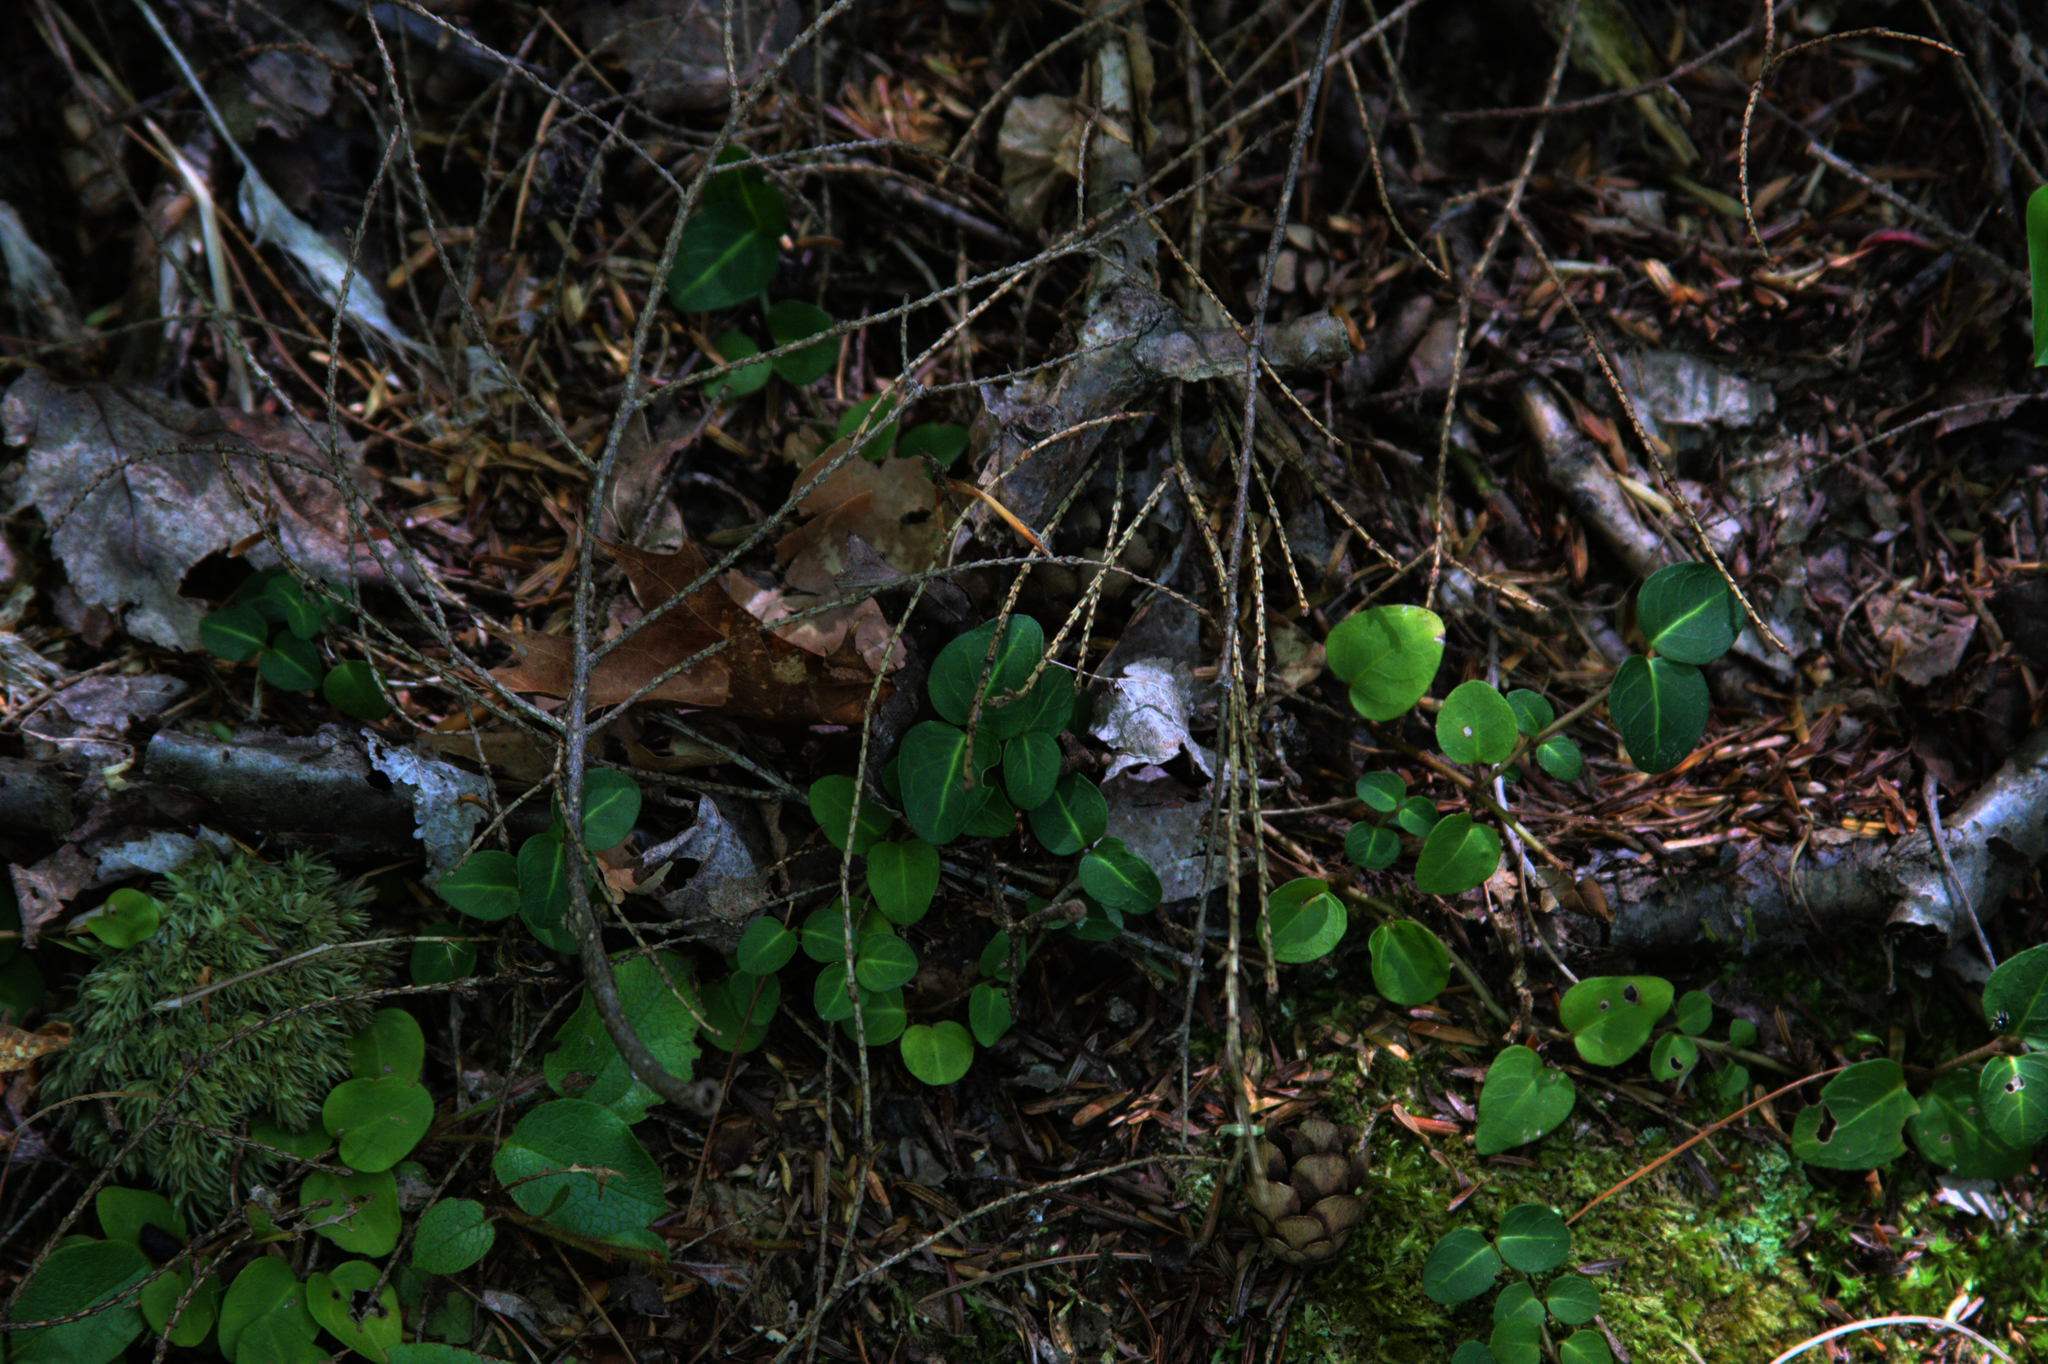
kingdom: Plantae
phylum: Tracheophyta
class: Magnoliopsida
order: Gentianales
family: Rubiaceae
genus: Mitchella
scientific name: Mitchella repens
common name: Partridge-berry
